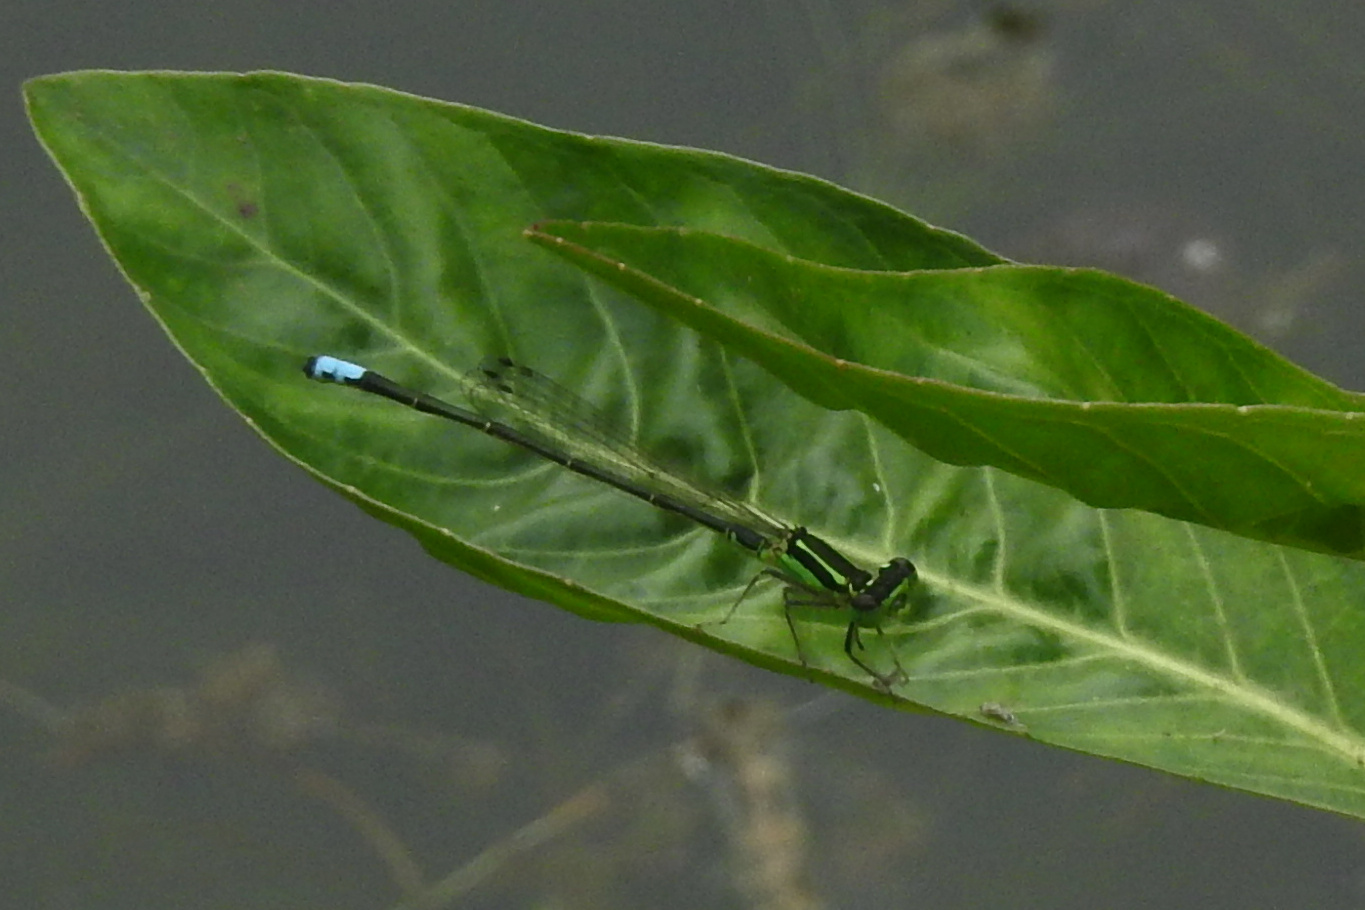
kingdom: Animalia
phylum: Arthropoda
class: Insecta
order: Odonata
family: Coenagrionidae
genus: Ischnura
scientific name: Ischnura verticalis
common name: Eastern forktail
